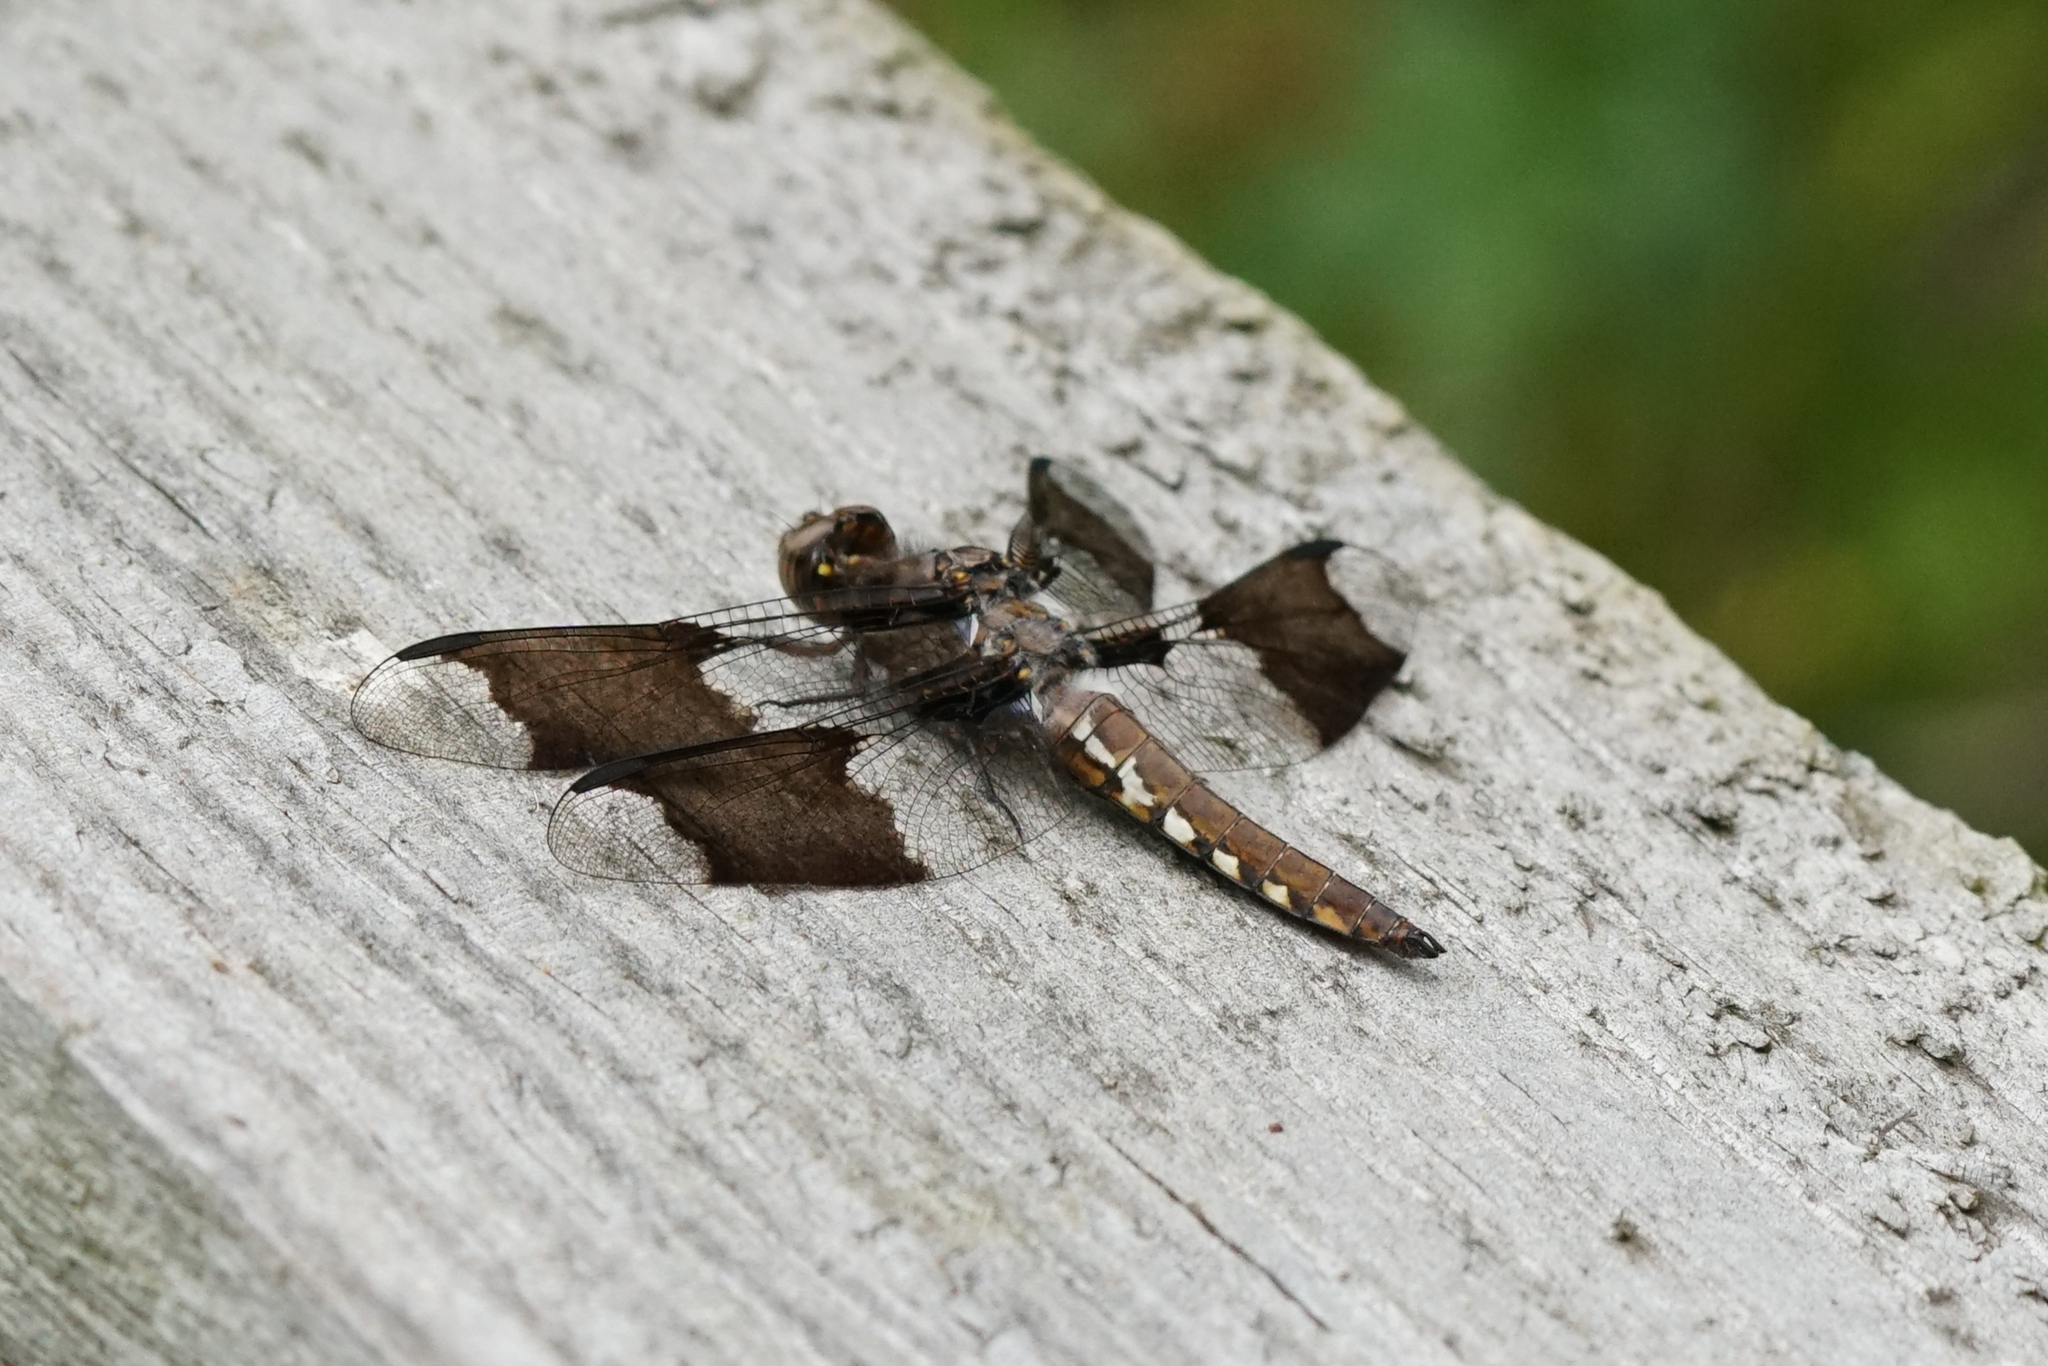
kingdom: Animalia
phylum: Arthropoda
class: Insecta
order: Odonata
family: Libellulidae
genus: Plathemis
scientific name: Plathemis lydia
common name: Common whitetail
